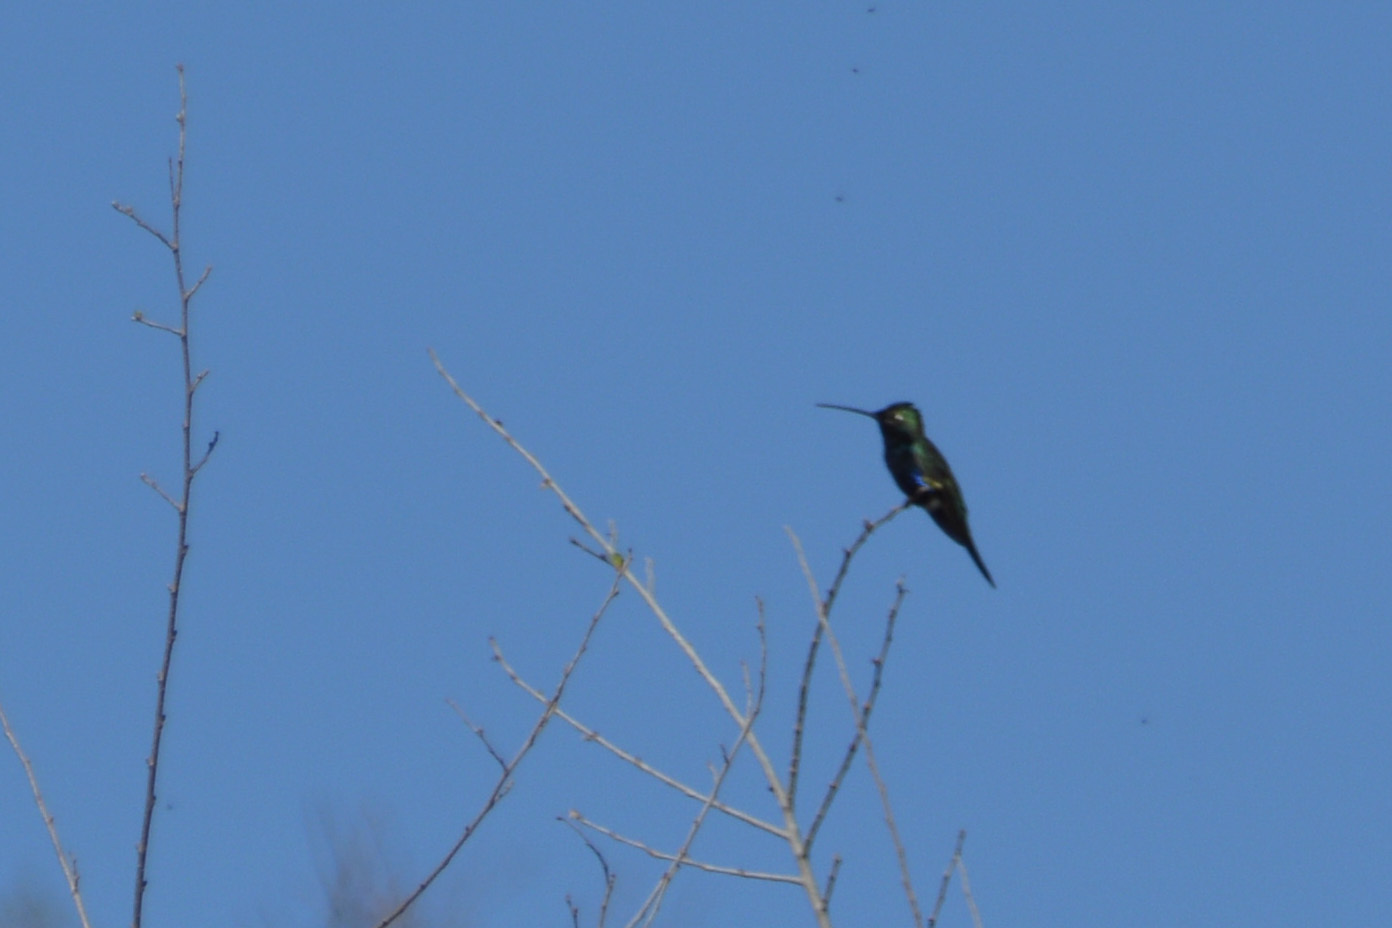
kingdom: Animalia
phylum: Chordata
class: Aves
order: Apodiformes
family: Trochilidae
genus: Heliomaster
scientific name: Heliomaster furcifer
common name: Blue-tufted starthroat
